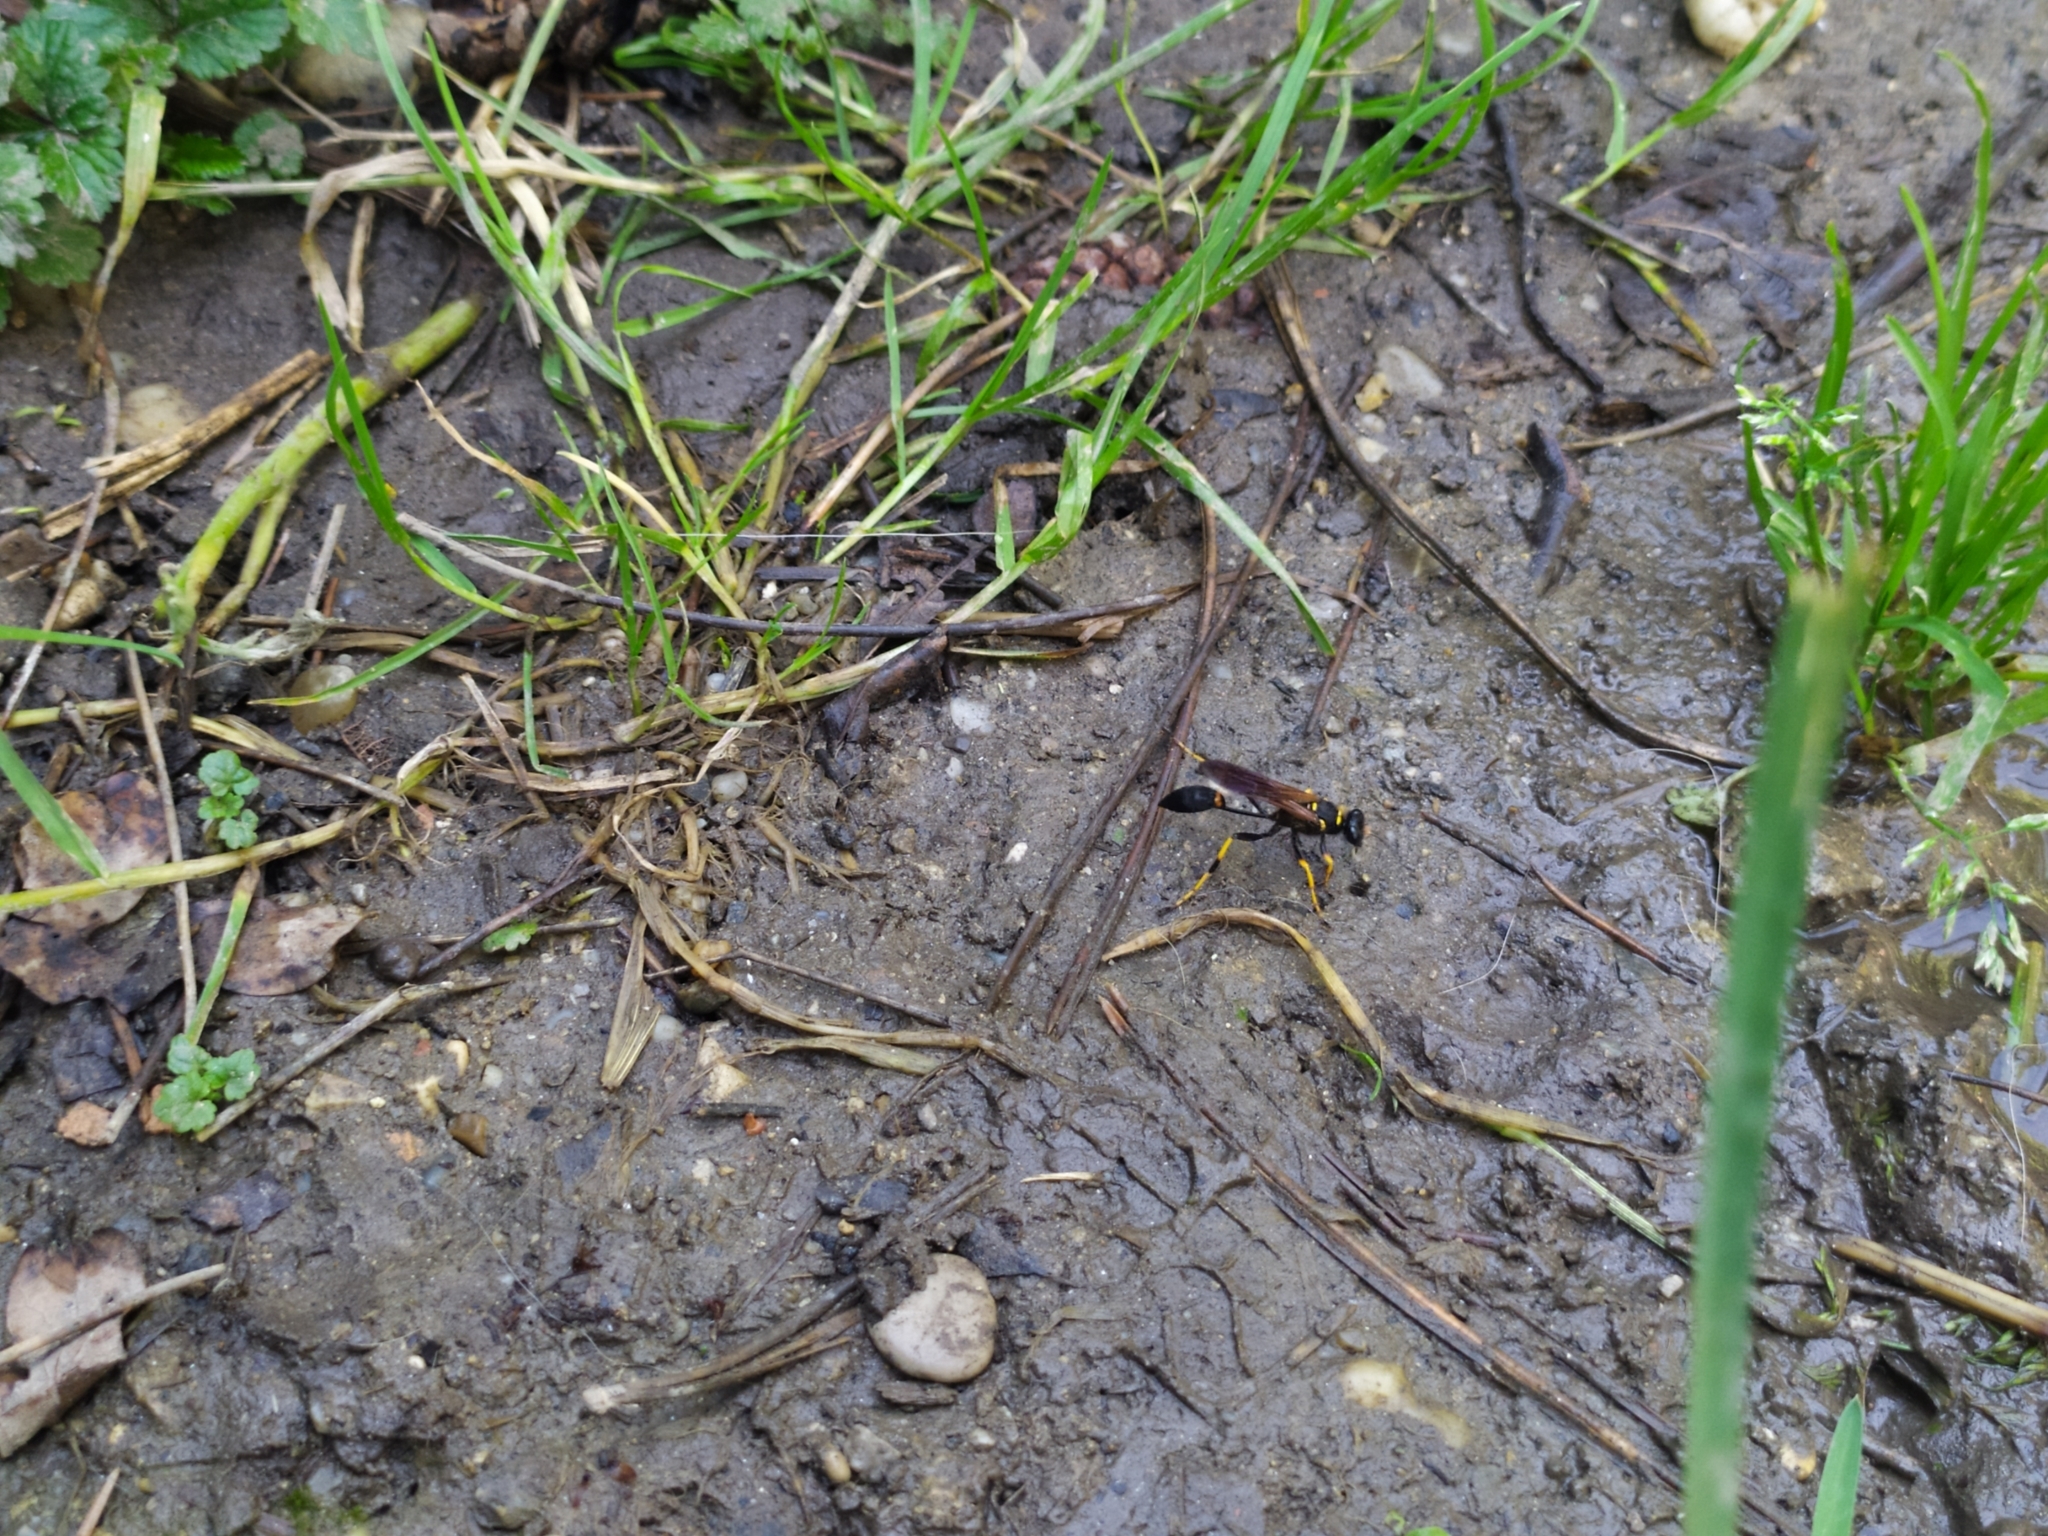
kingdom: Animalia
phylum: Arthropoda
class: Insecta
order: Hymenoptera
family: Sphecidae
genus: Sceliphron
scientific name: Sceliphron caementarium
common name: Mud dauber
